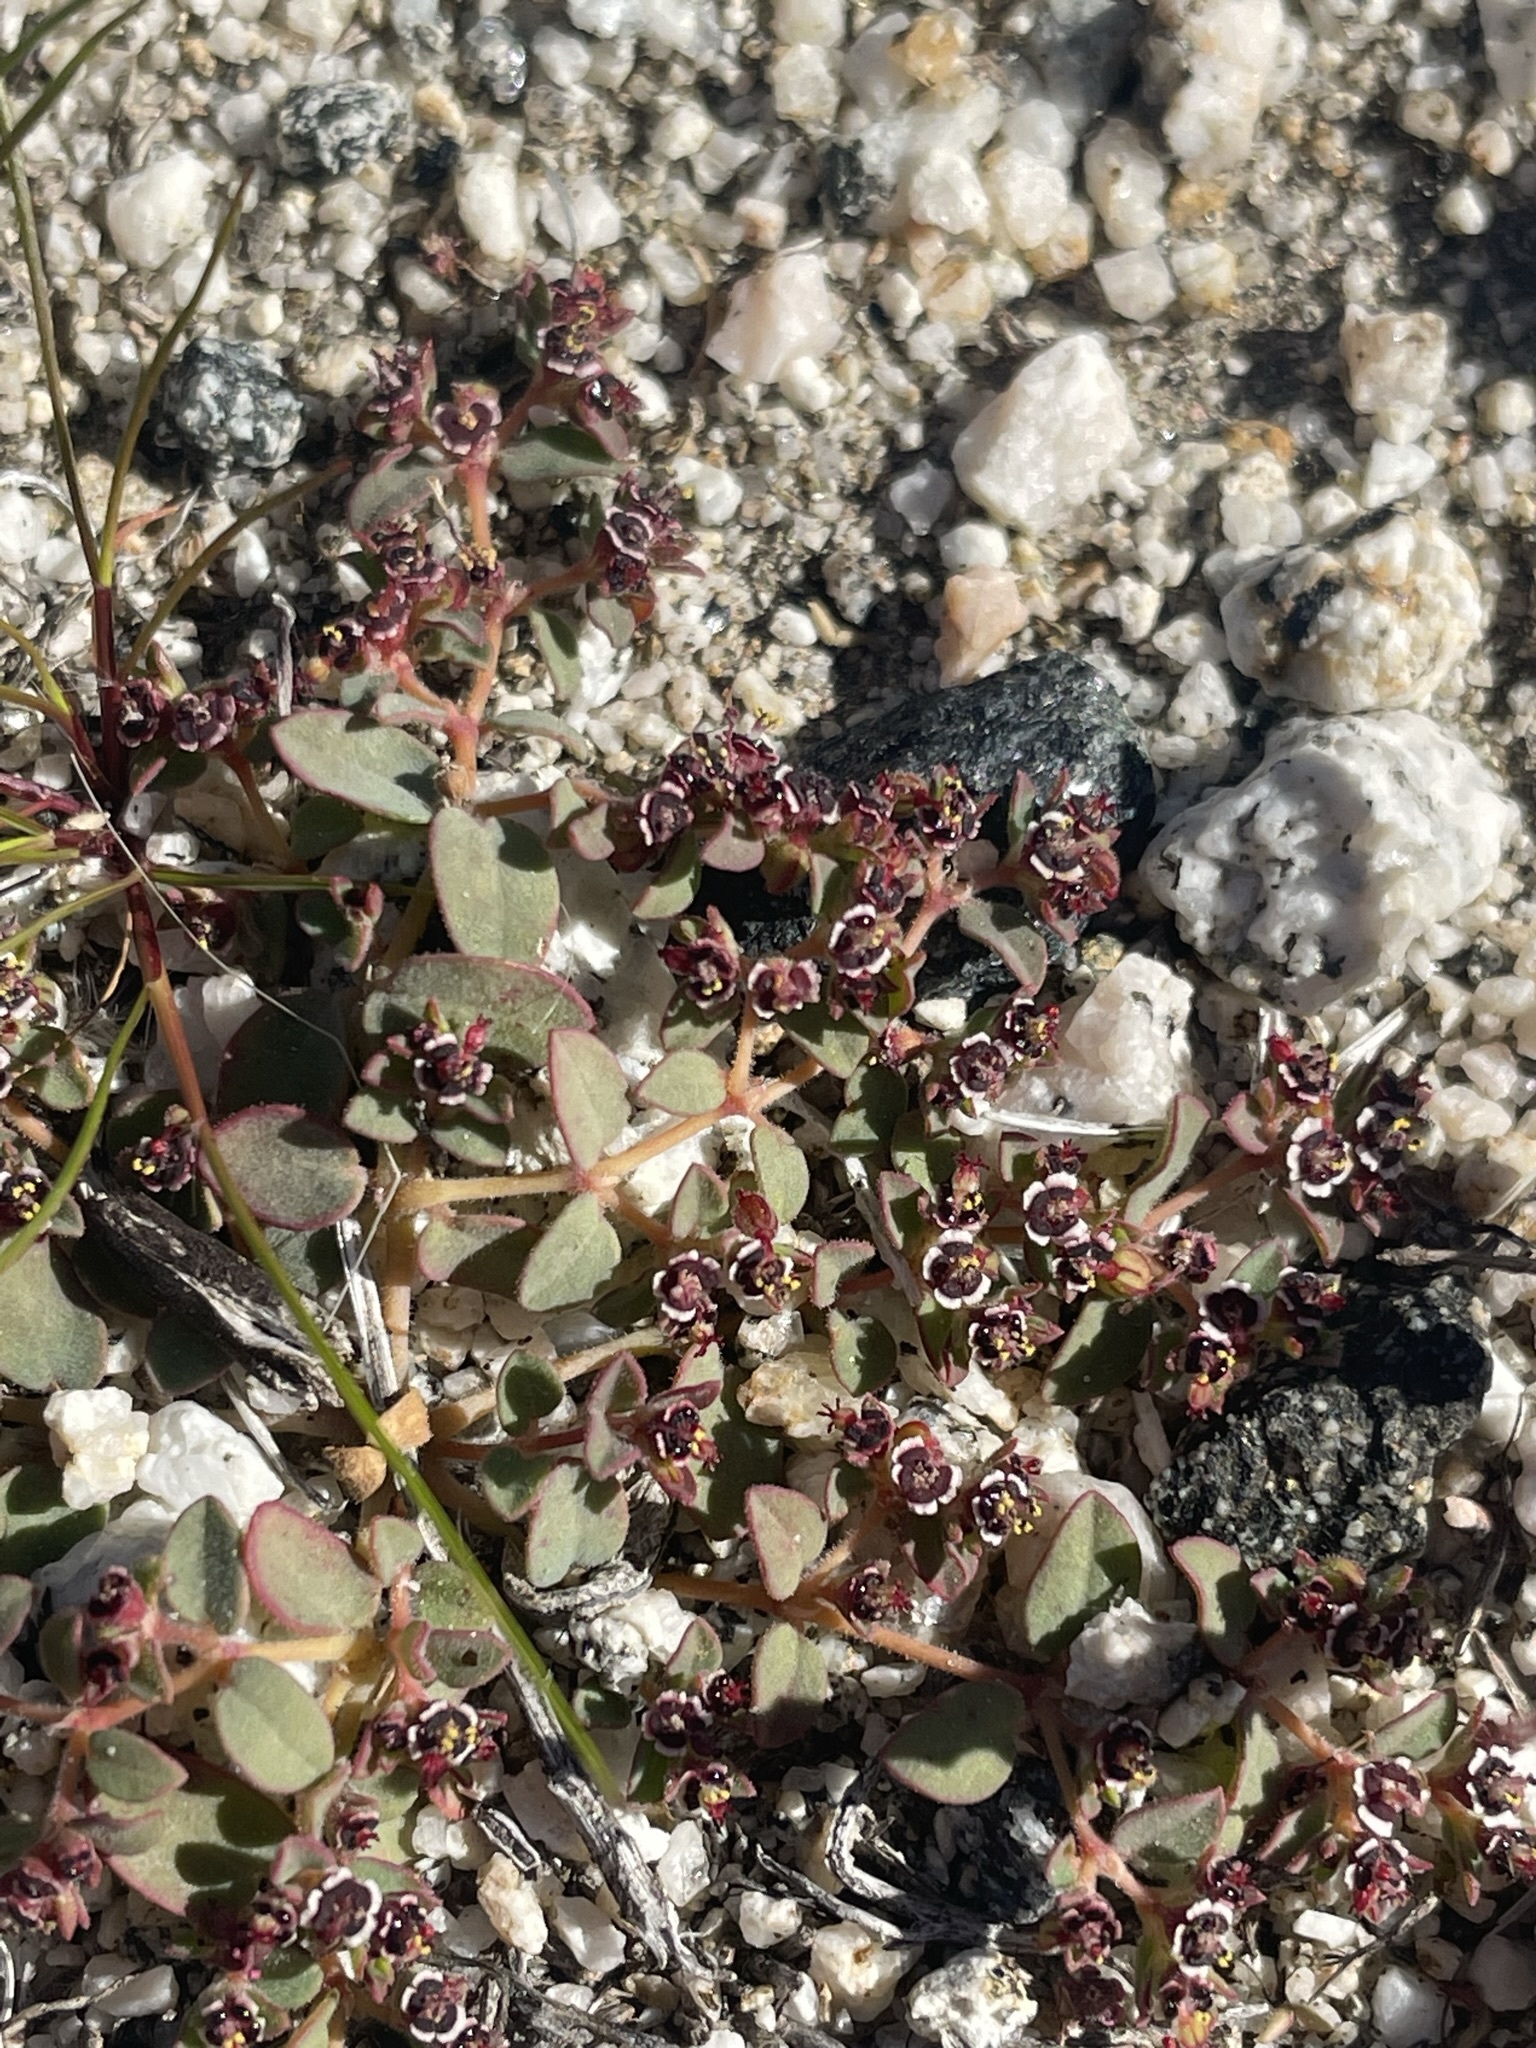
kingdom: Plantae
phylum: Tracheophyta
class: Magnoliopsida
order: Malpighiales
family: Euphorbiaceae
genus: Euphorbia
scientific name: Euphorbia polycarpa
